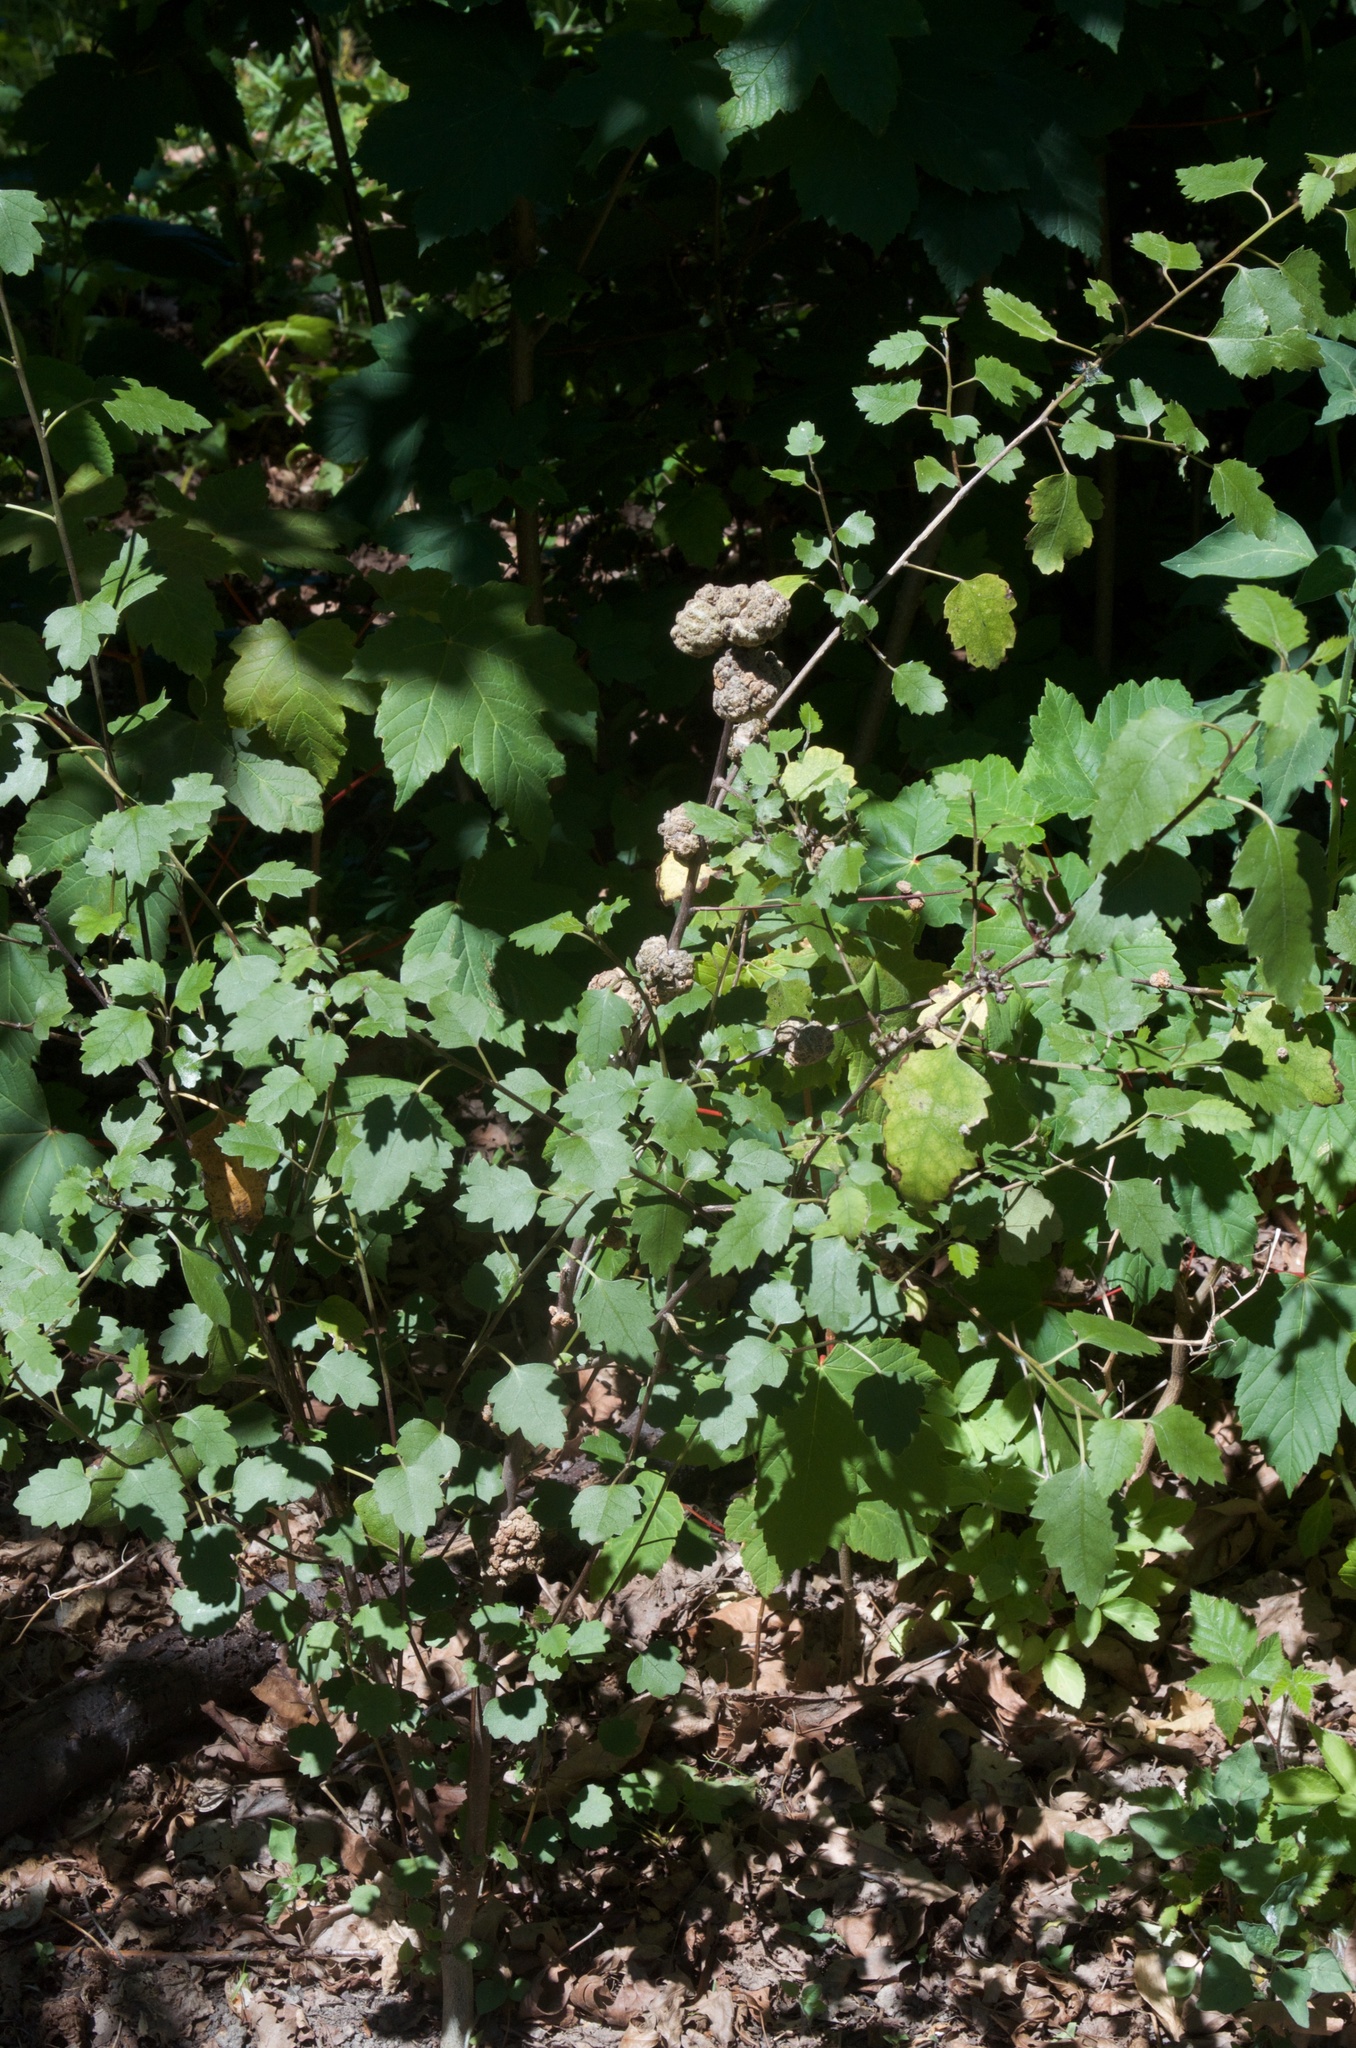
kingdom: Plantae
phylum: Tracheophyta
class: Magnoliopsida
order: Malvales
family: Malvaceae
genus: Hoheria
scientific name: Hoheria populnea
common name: Lacebark
